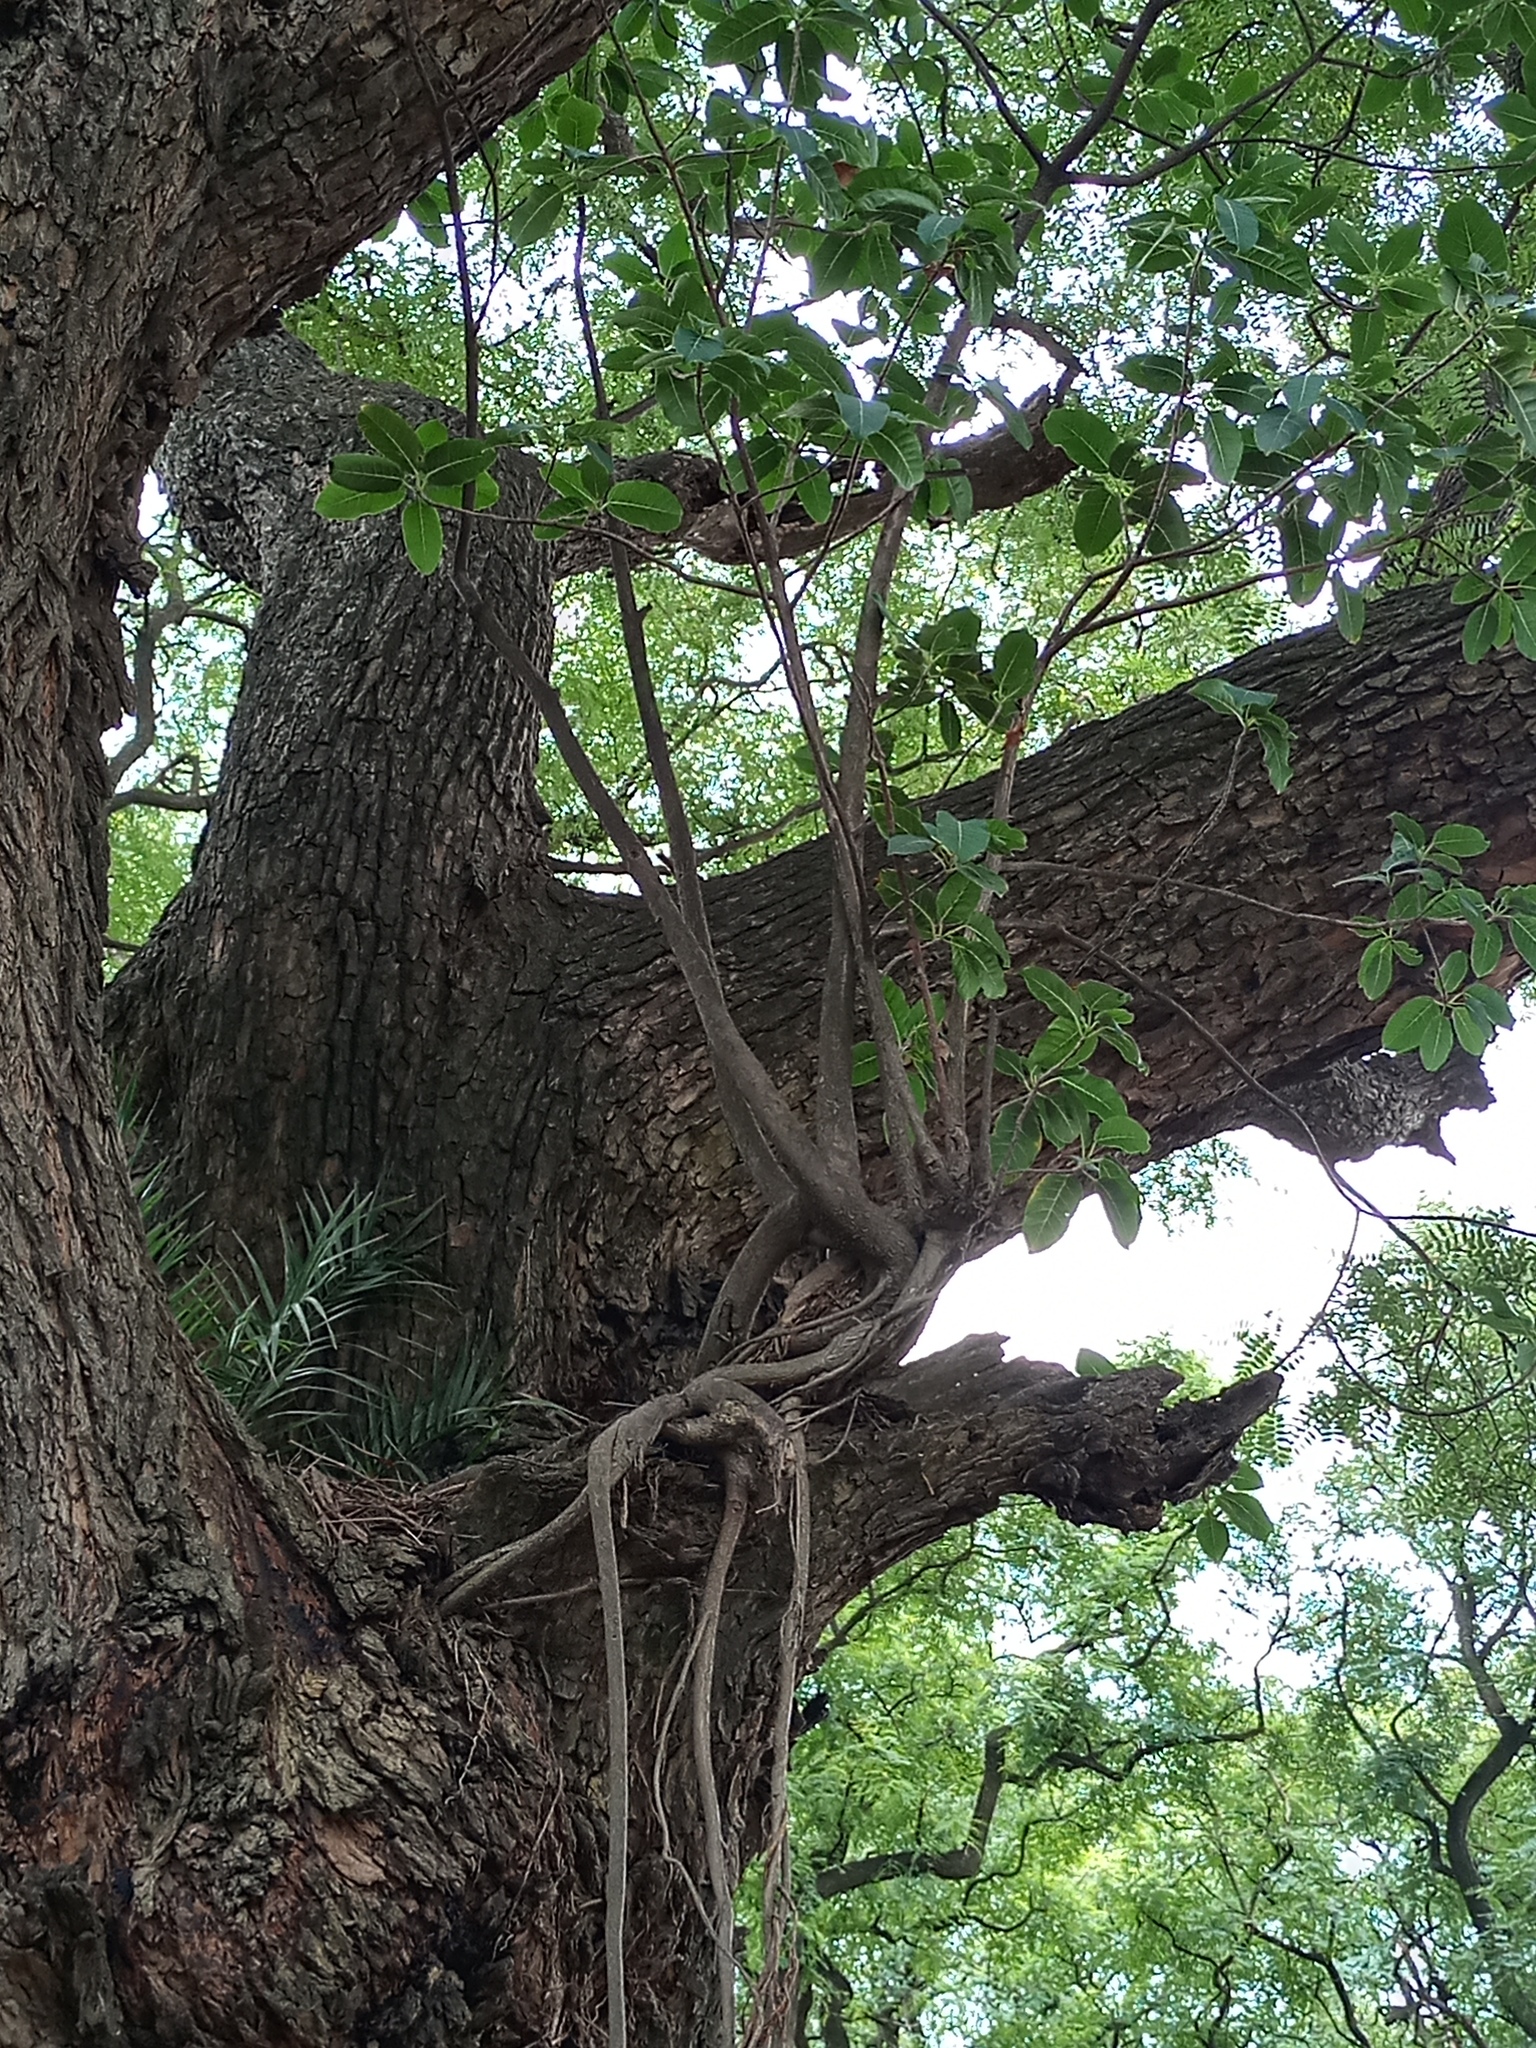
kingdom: Plantae
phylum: Tracheophyta
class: Magnoliopsida
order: Rosales
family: Moraceae
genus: Ficus
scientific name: Ficus luschnathiana
